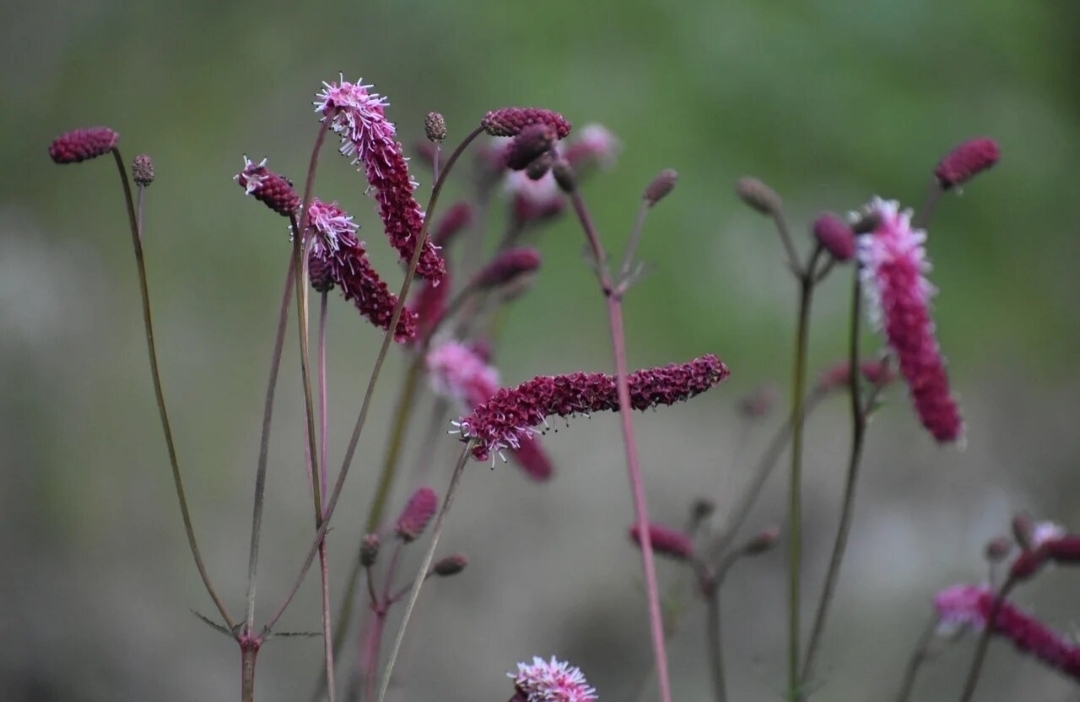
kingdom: Plantae
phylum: Tracheophyta
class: Magnoliopsida
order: Rosales
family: Rosaceae
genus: Poterium
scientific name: Poterium tenuifolium
